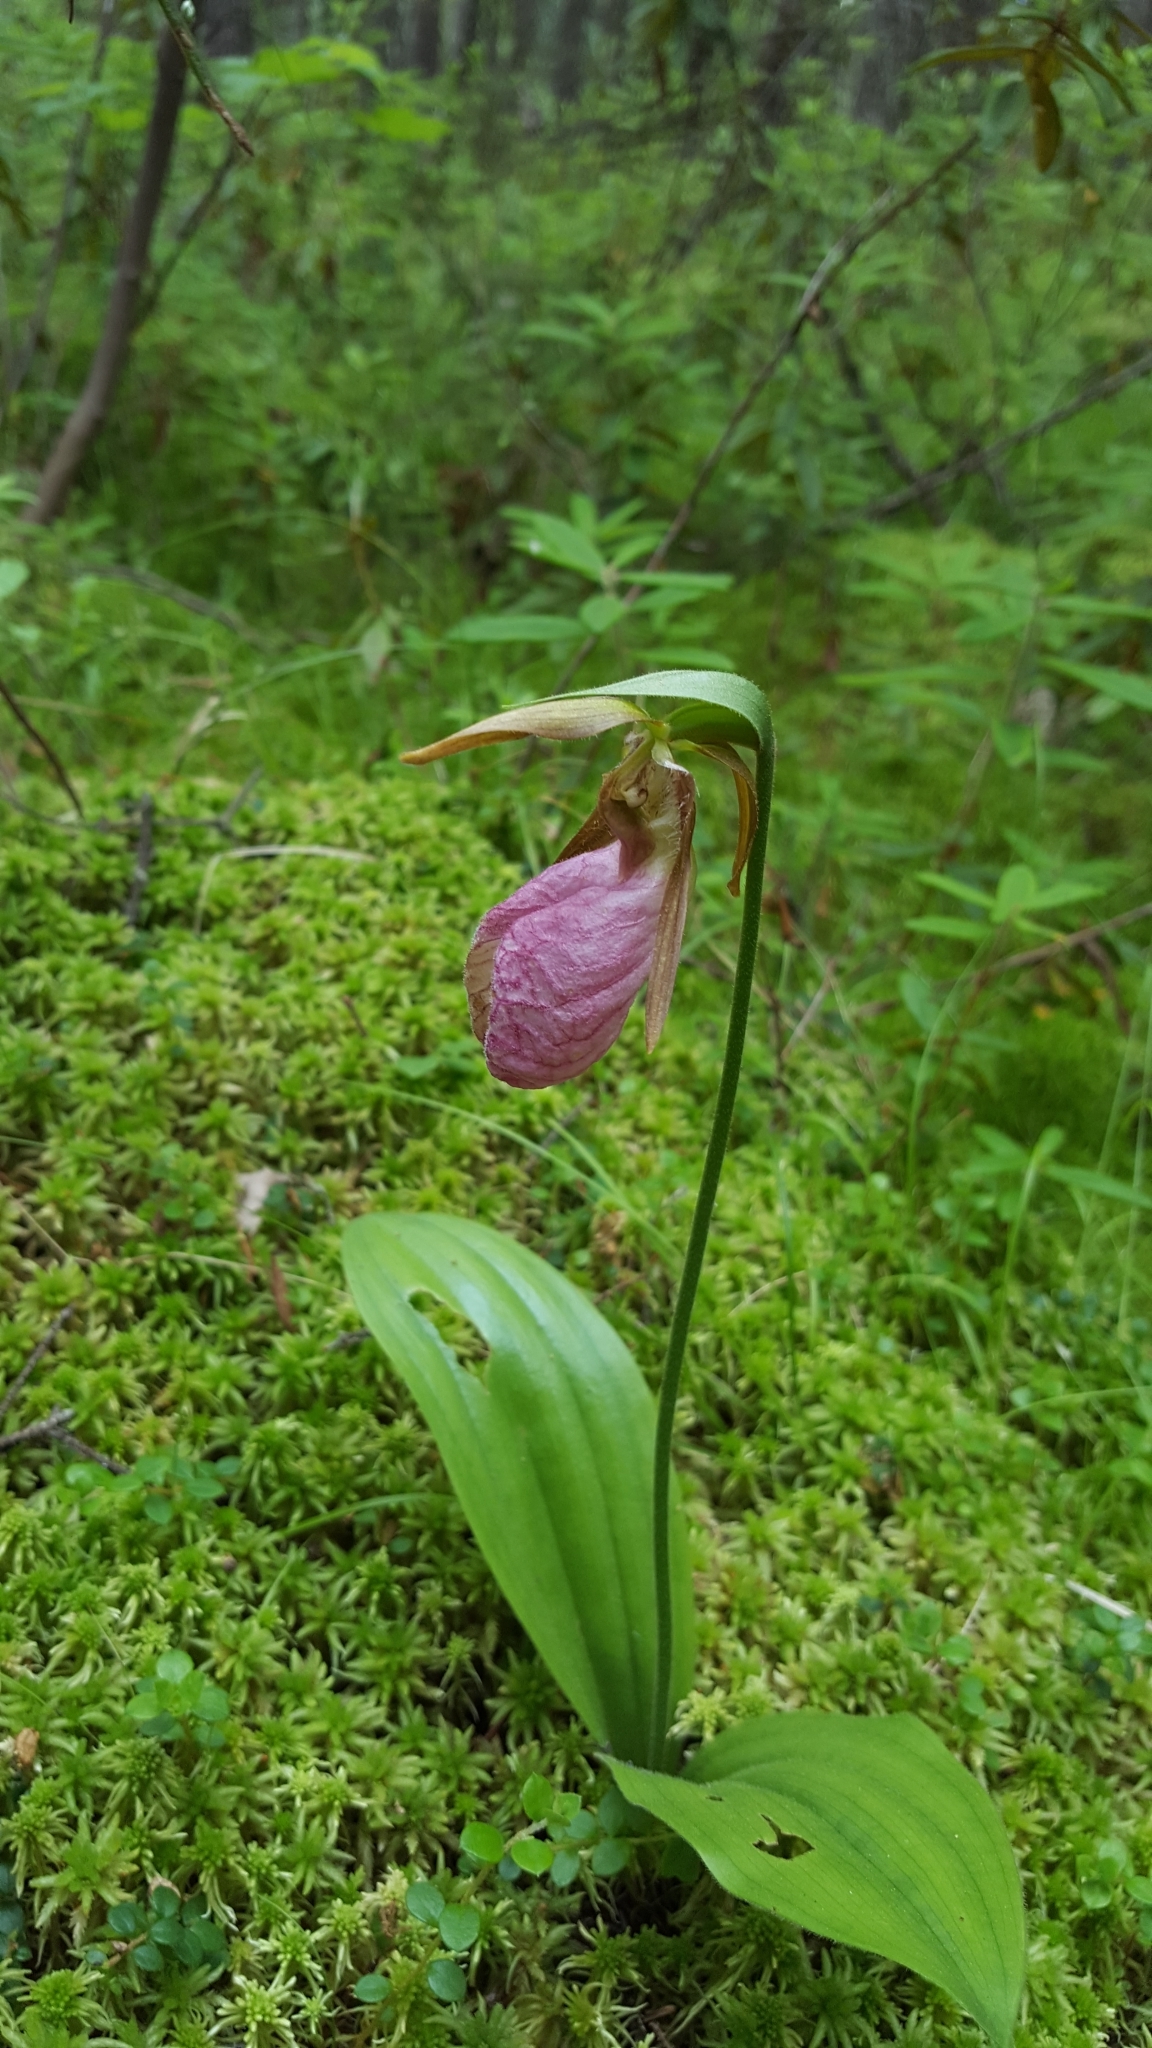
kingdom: Plantae
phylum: Tracheophyta
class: Liliopsida
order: Asparagales
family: Orchidaceae
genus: Cypripedium
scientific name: Cypripedium acaule
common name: Pink lady's-slipper
